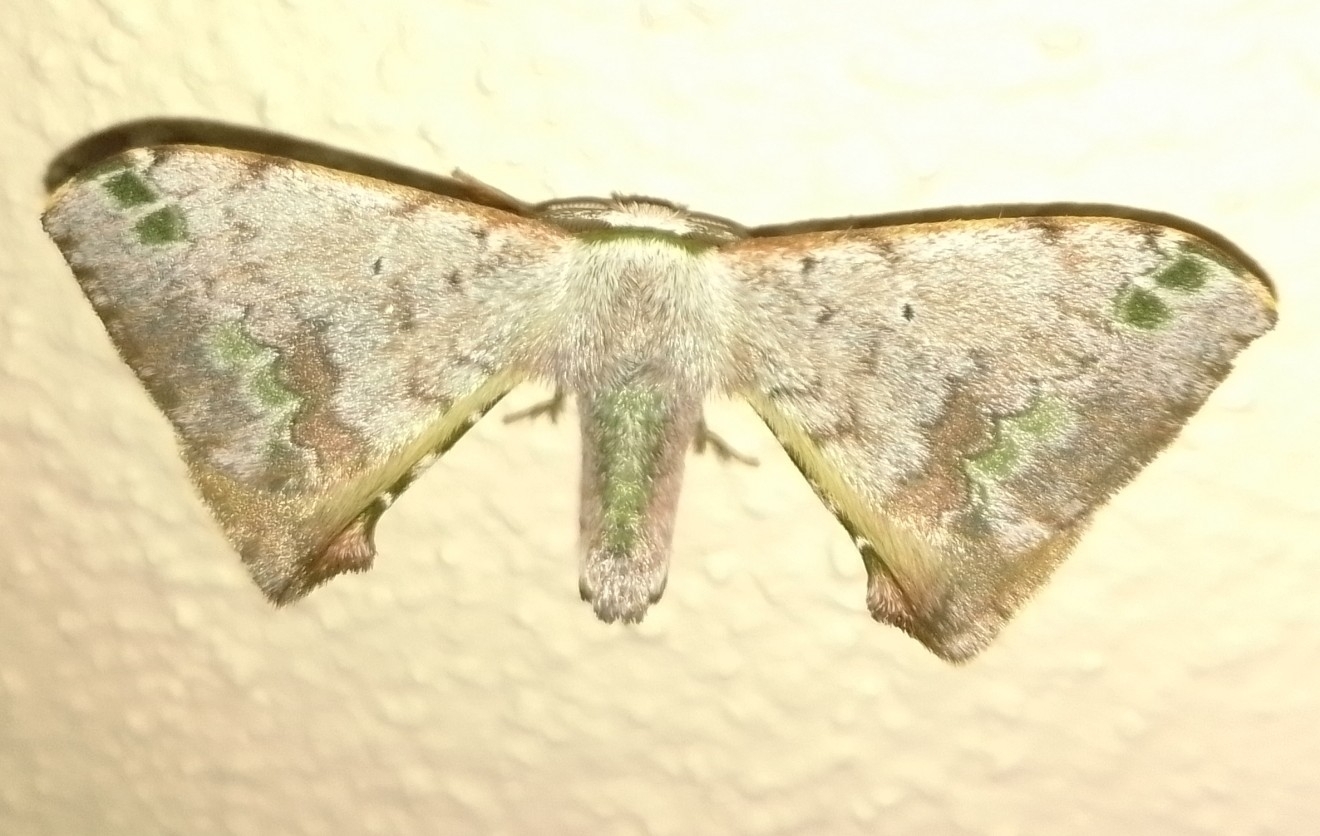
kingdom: Animalia
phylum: Arthropoda
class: Insecta
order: Lepidoptera
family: Bombycidae
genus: Anticla
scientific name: Anticla antica
